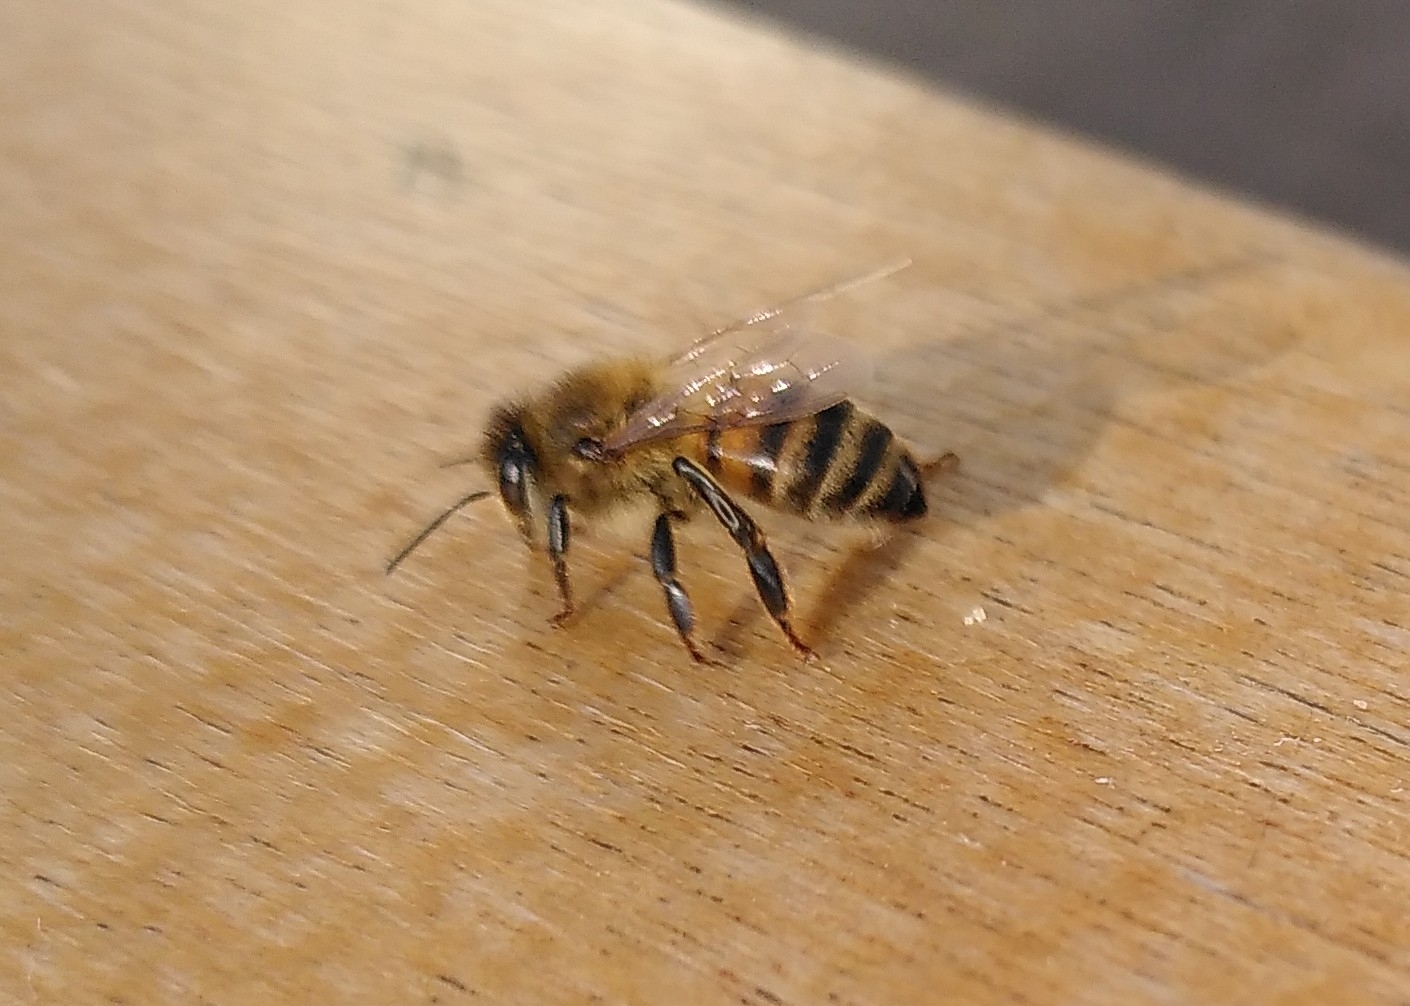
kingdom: Animalia
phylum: Arthropoda
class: Insecta
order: Hymenoptera
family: Apidae
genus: Apis
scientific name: Apis mellifera
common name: Honey bee
